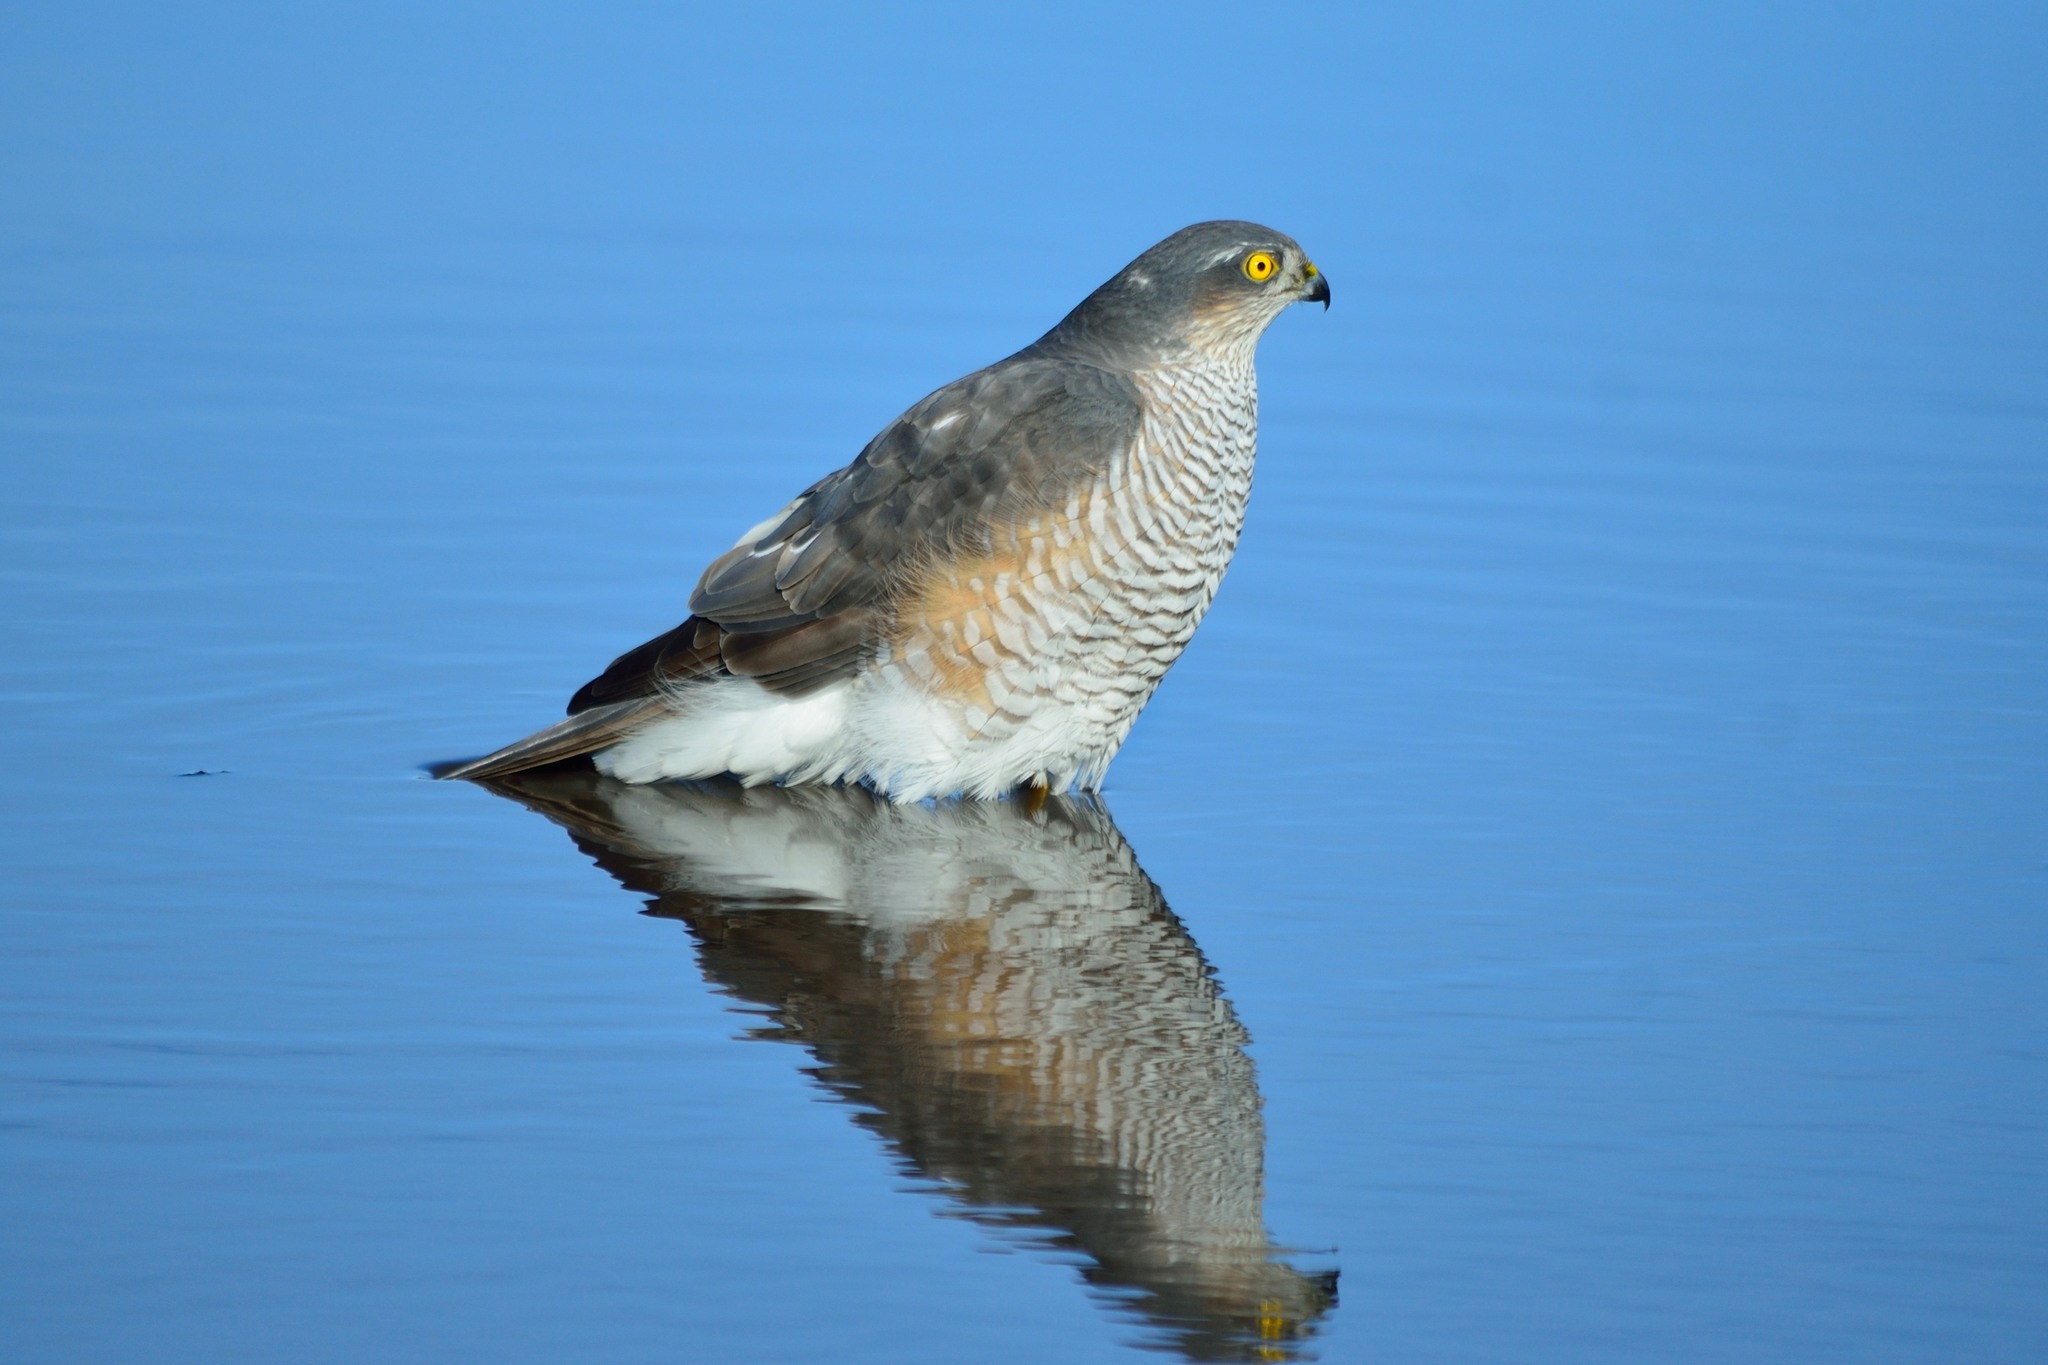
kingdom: Animalia
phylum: Chordata
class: Aves
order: Accipitriformes
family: Accipitridae
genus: Accipiter
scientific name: Accipiter nisus
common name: Eurasian sparrowhawk
